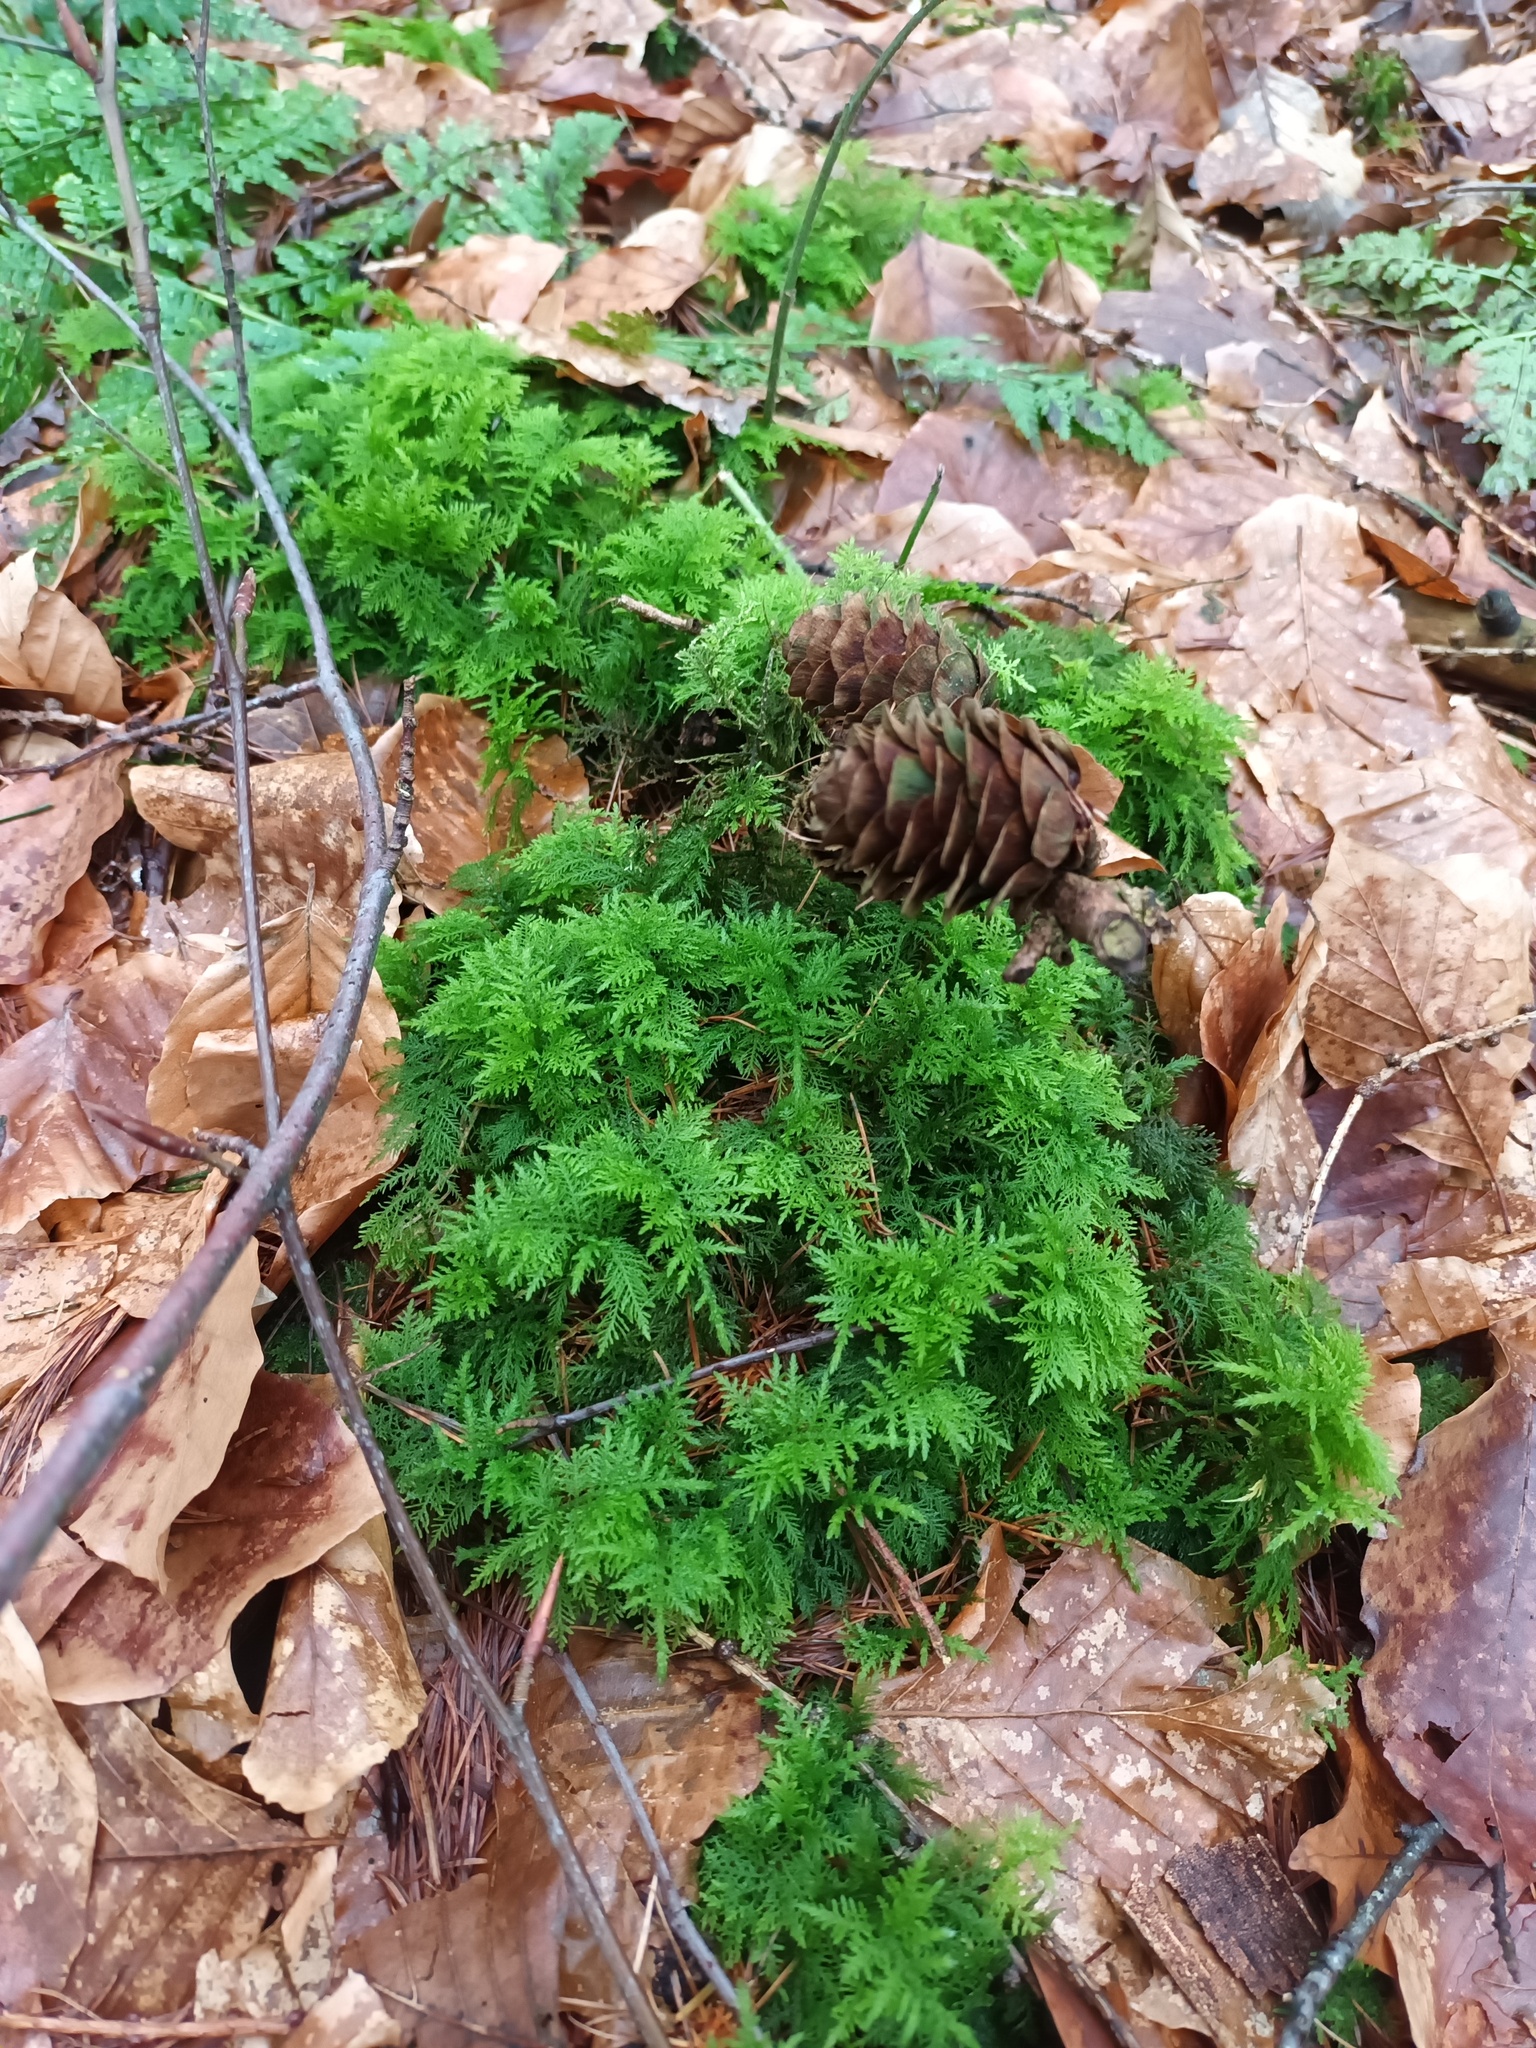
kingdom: Plantae
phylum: Bryophyta
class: Bryopsida
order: Hypnales
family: Thuidiaceae
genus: Thuidium
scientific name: Thuidium tamariscinum
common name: Common tamarisk-moss
